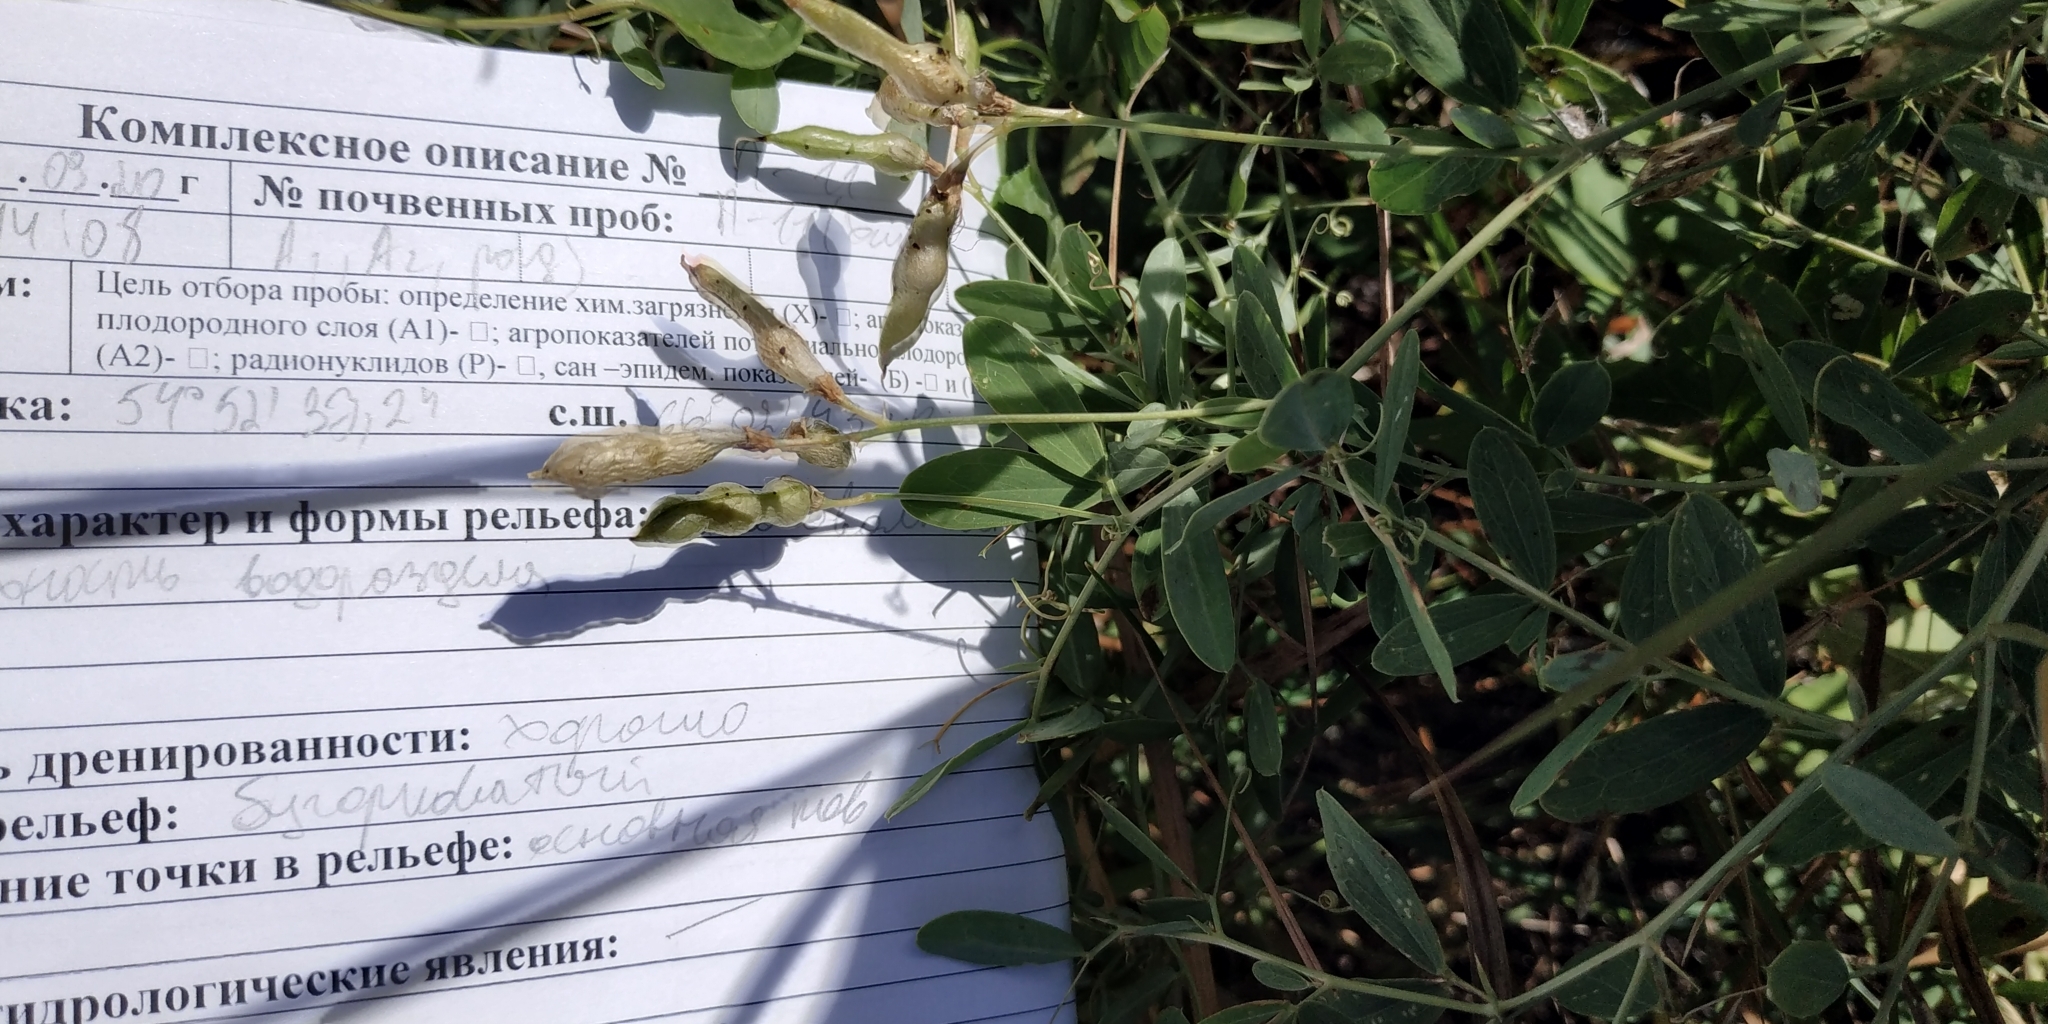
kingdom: Plantae
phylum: Tracheophyta
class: Magnoliopsida
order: Fabales
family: Fabaceae
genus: Lathyrus
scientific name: Lathyrus tuberosus
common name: Tuberous pea
